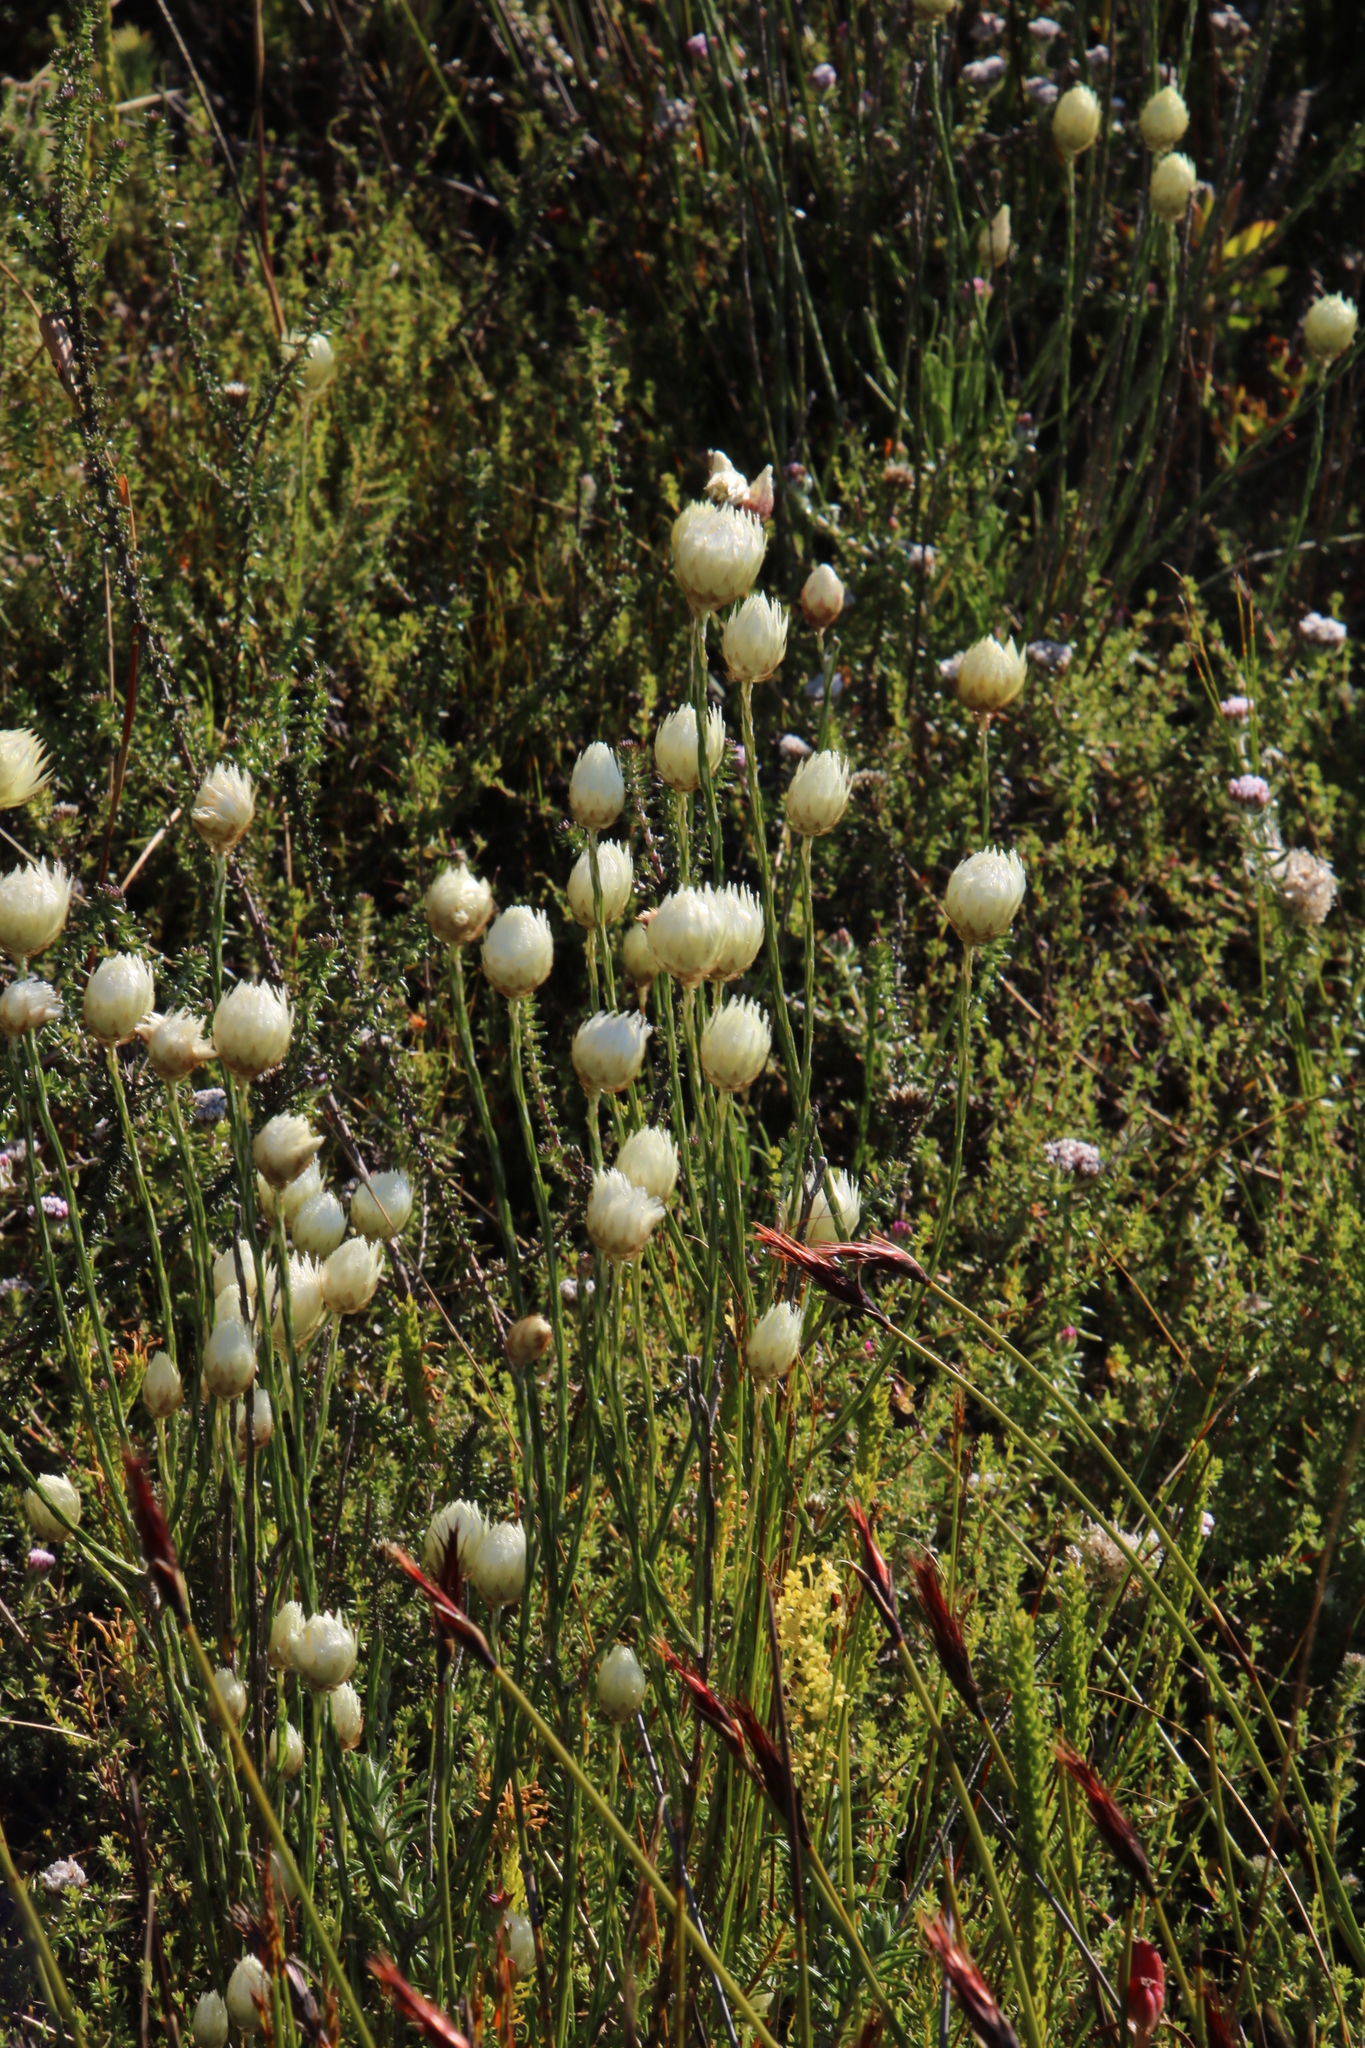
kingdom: Plantae
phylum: Tracheophyta
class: Magnoliopsida
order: Asterales
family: Asteraceae
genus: Edmondia
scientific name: Edmondia sesamoides
